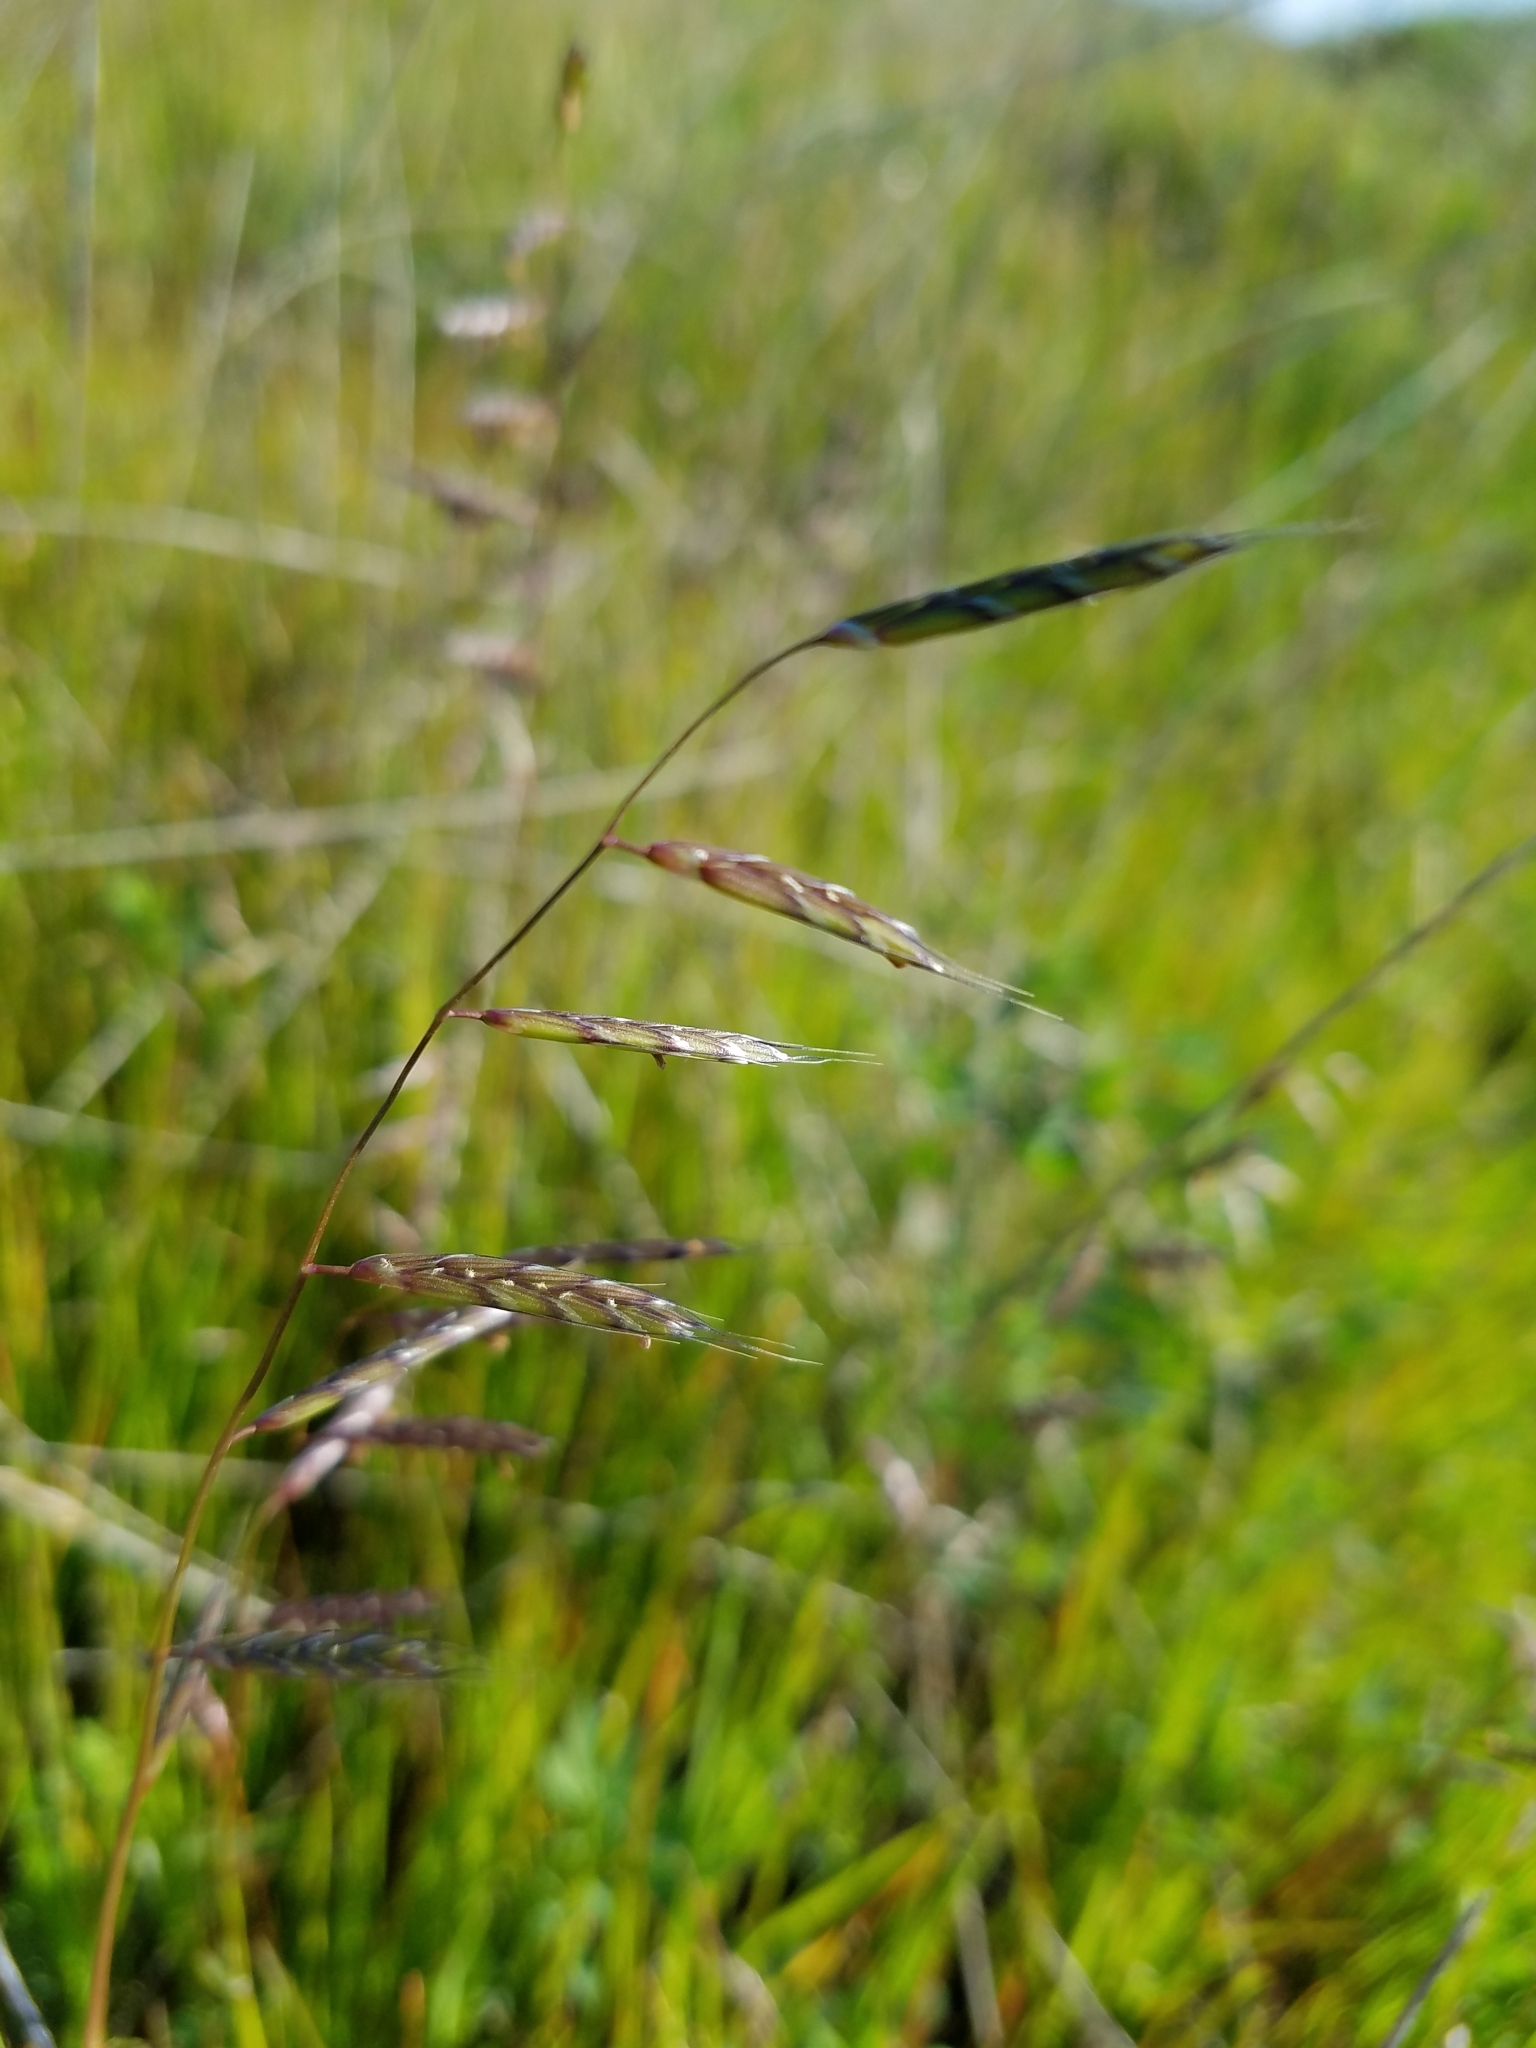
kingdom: Plantae
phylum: Tracheophyta
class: Liliopsida
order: Poales
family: Poaceae
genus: Pleuropogon
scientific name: Pleuropogon californicus
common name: California semaphore grass
